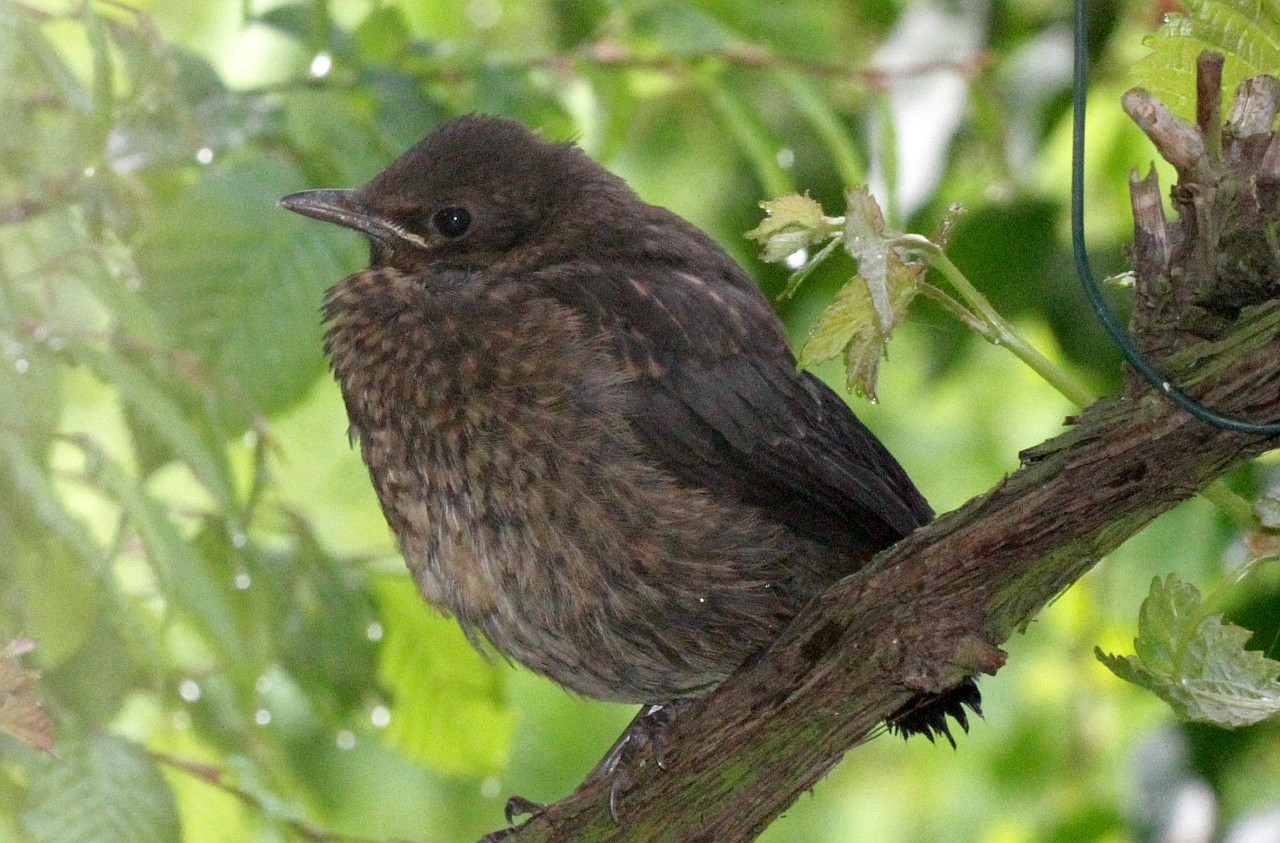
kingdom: Animalia
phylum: Chordata
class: Aves
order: Passeriformes
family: Turdidae
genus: Turdus
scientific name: Turdus merula
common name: Common blackbird
